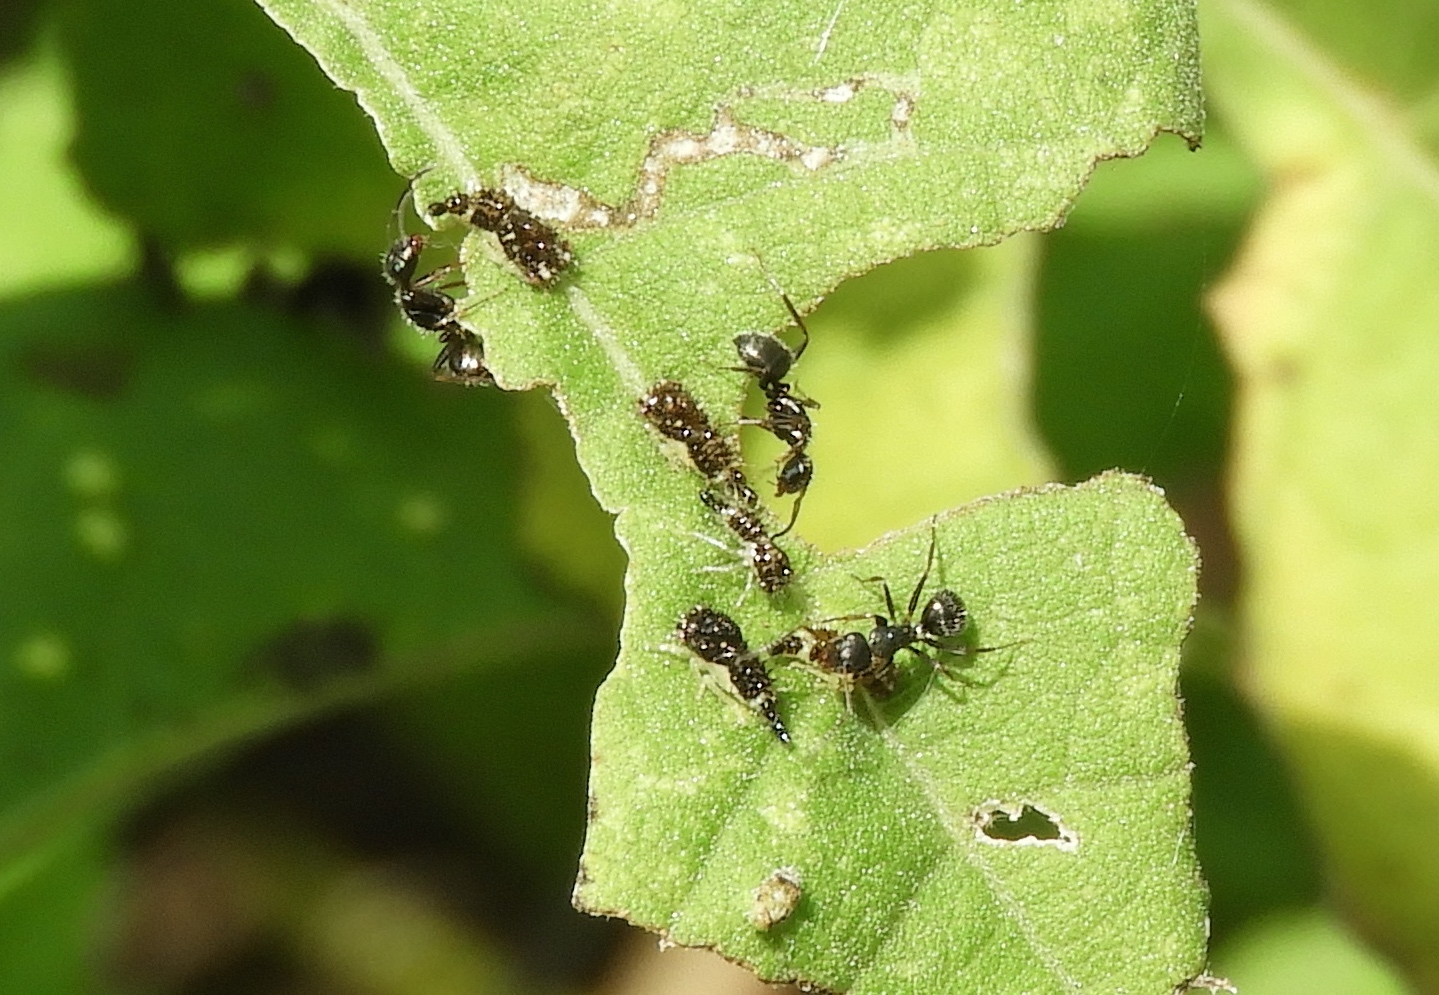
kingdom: Animalia
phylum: Arthropoda
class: Insecta
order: Hymenoptera
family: Formicidae
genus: Dorymyrmex
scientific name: Dorymyrmex insanus
